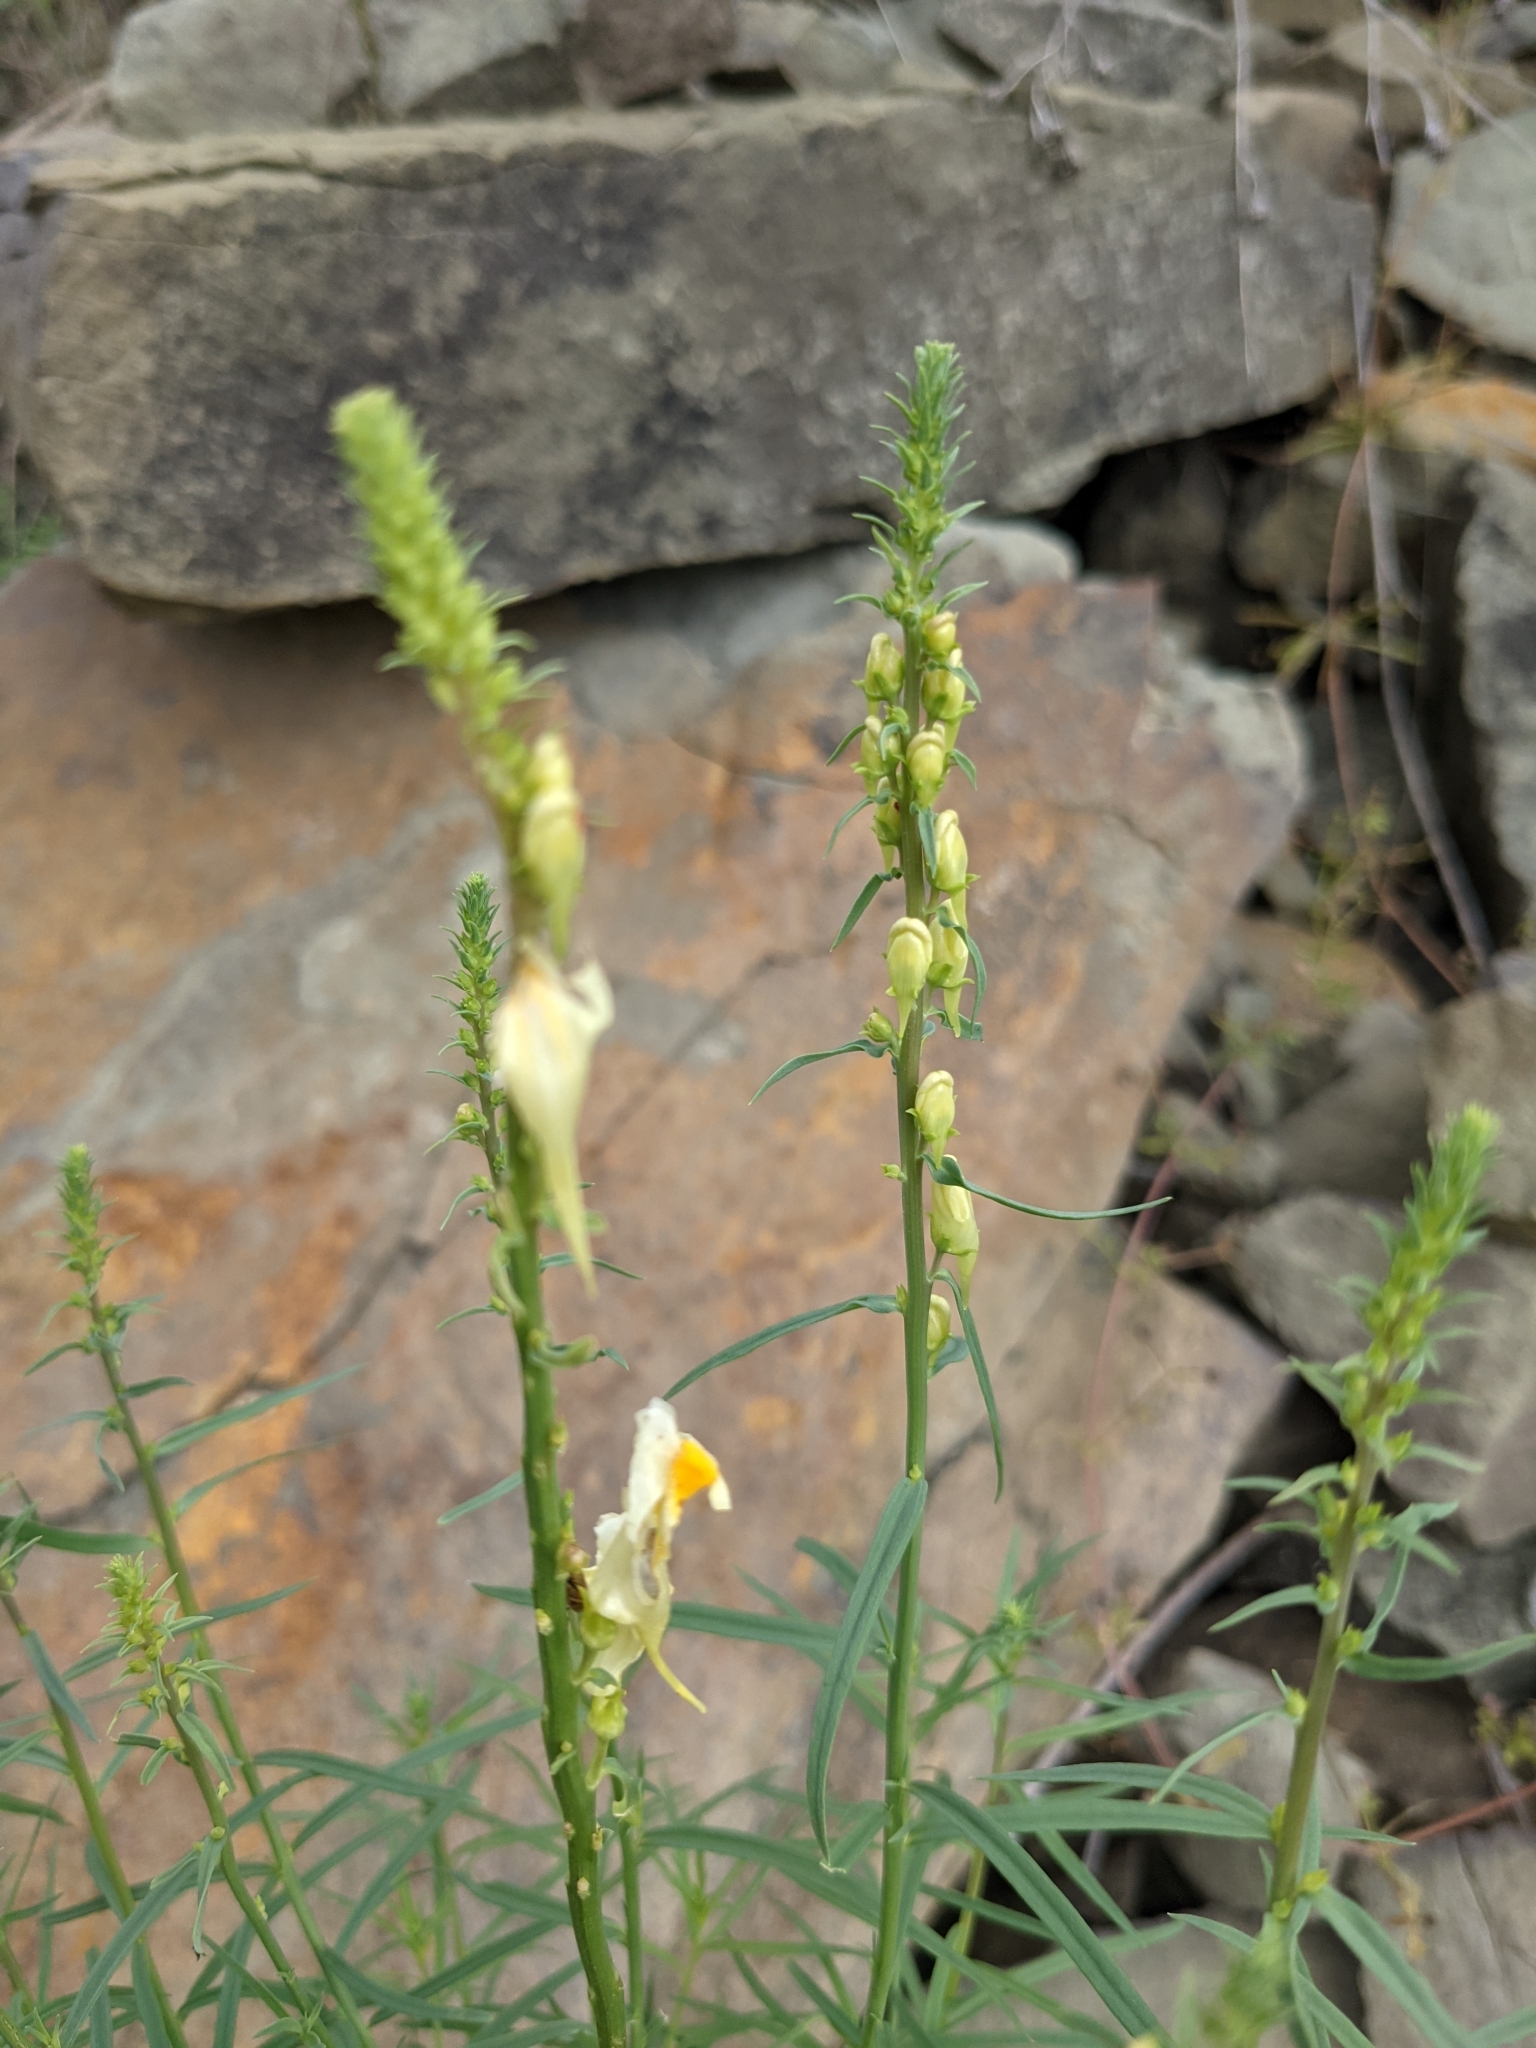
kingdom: Plantae
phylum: Tracheophyta
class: Magnoliopsida
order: Lamiales
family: Plantaginaceae
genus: Linaria
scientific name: Linaria vulgaris
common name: Butter and eggs
